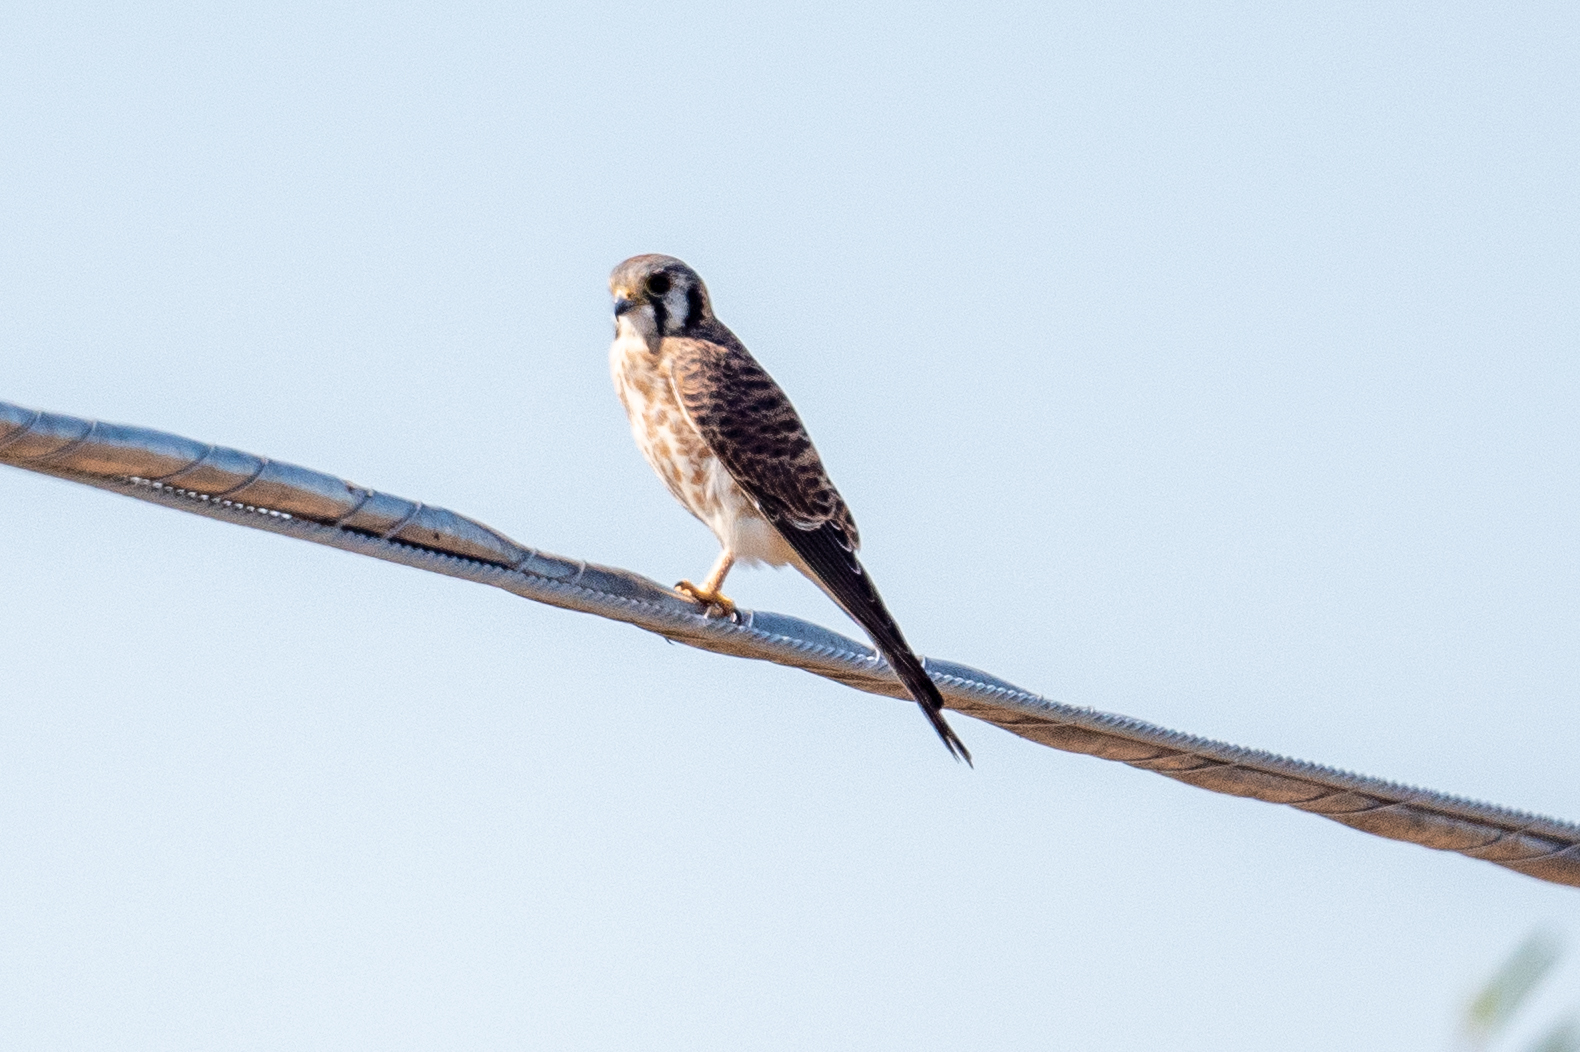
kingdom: Animalia
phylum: Chordata
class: Aves
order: Falconiformes
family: Falconidae
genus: Falco
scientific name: Falco sparverius
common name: American kestrel
